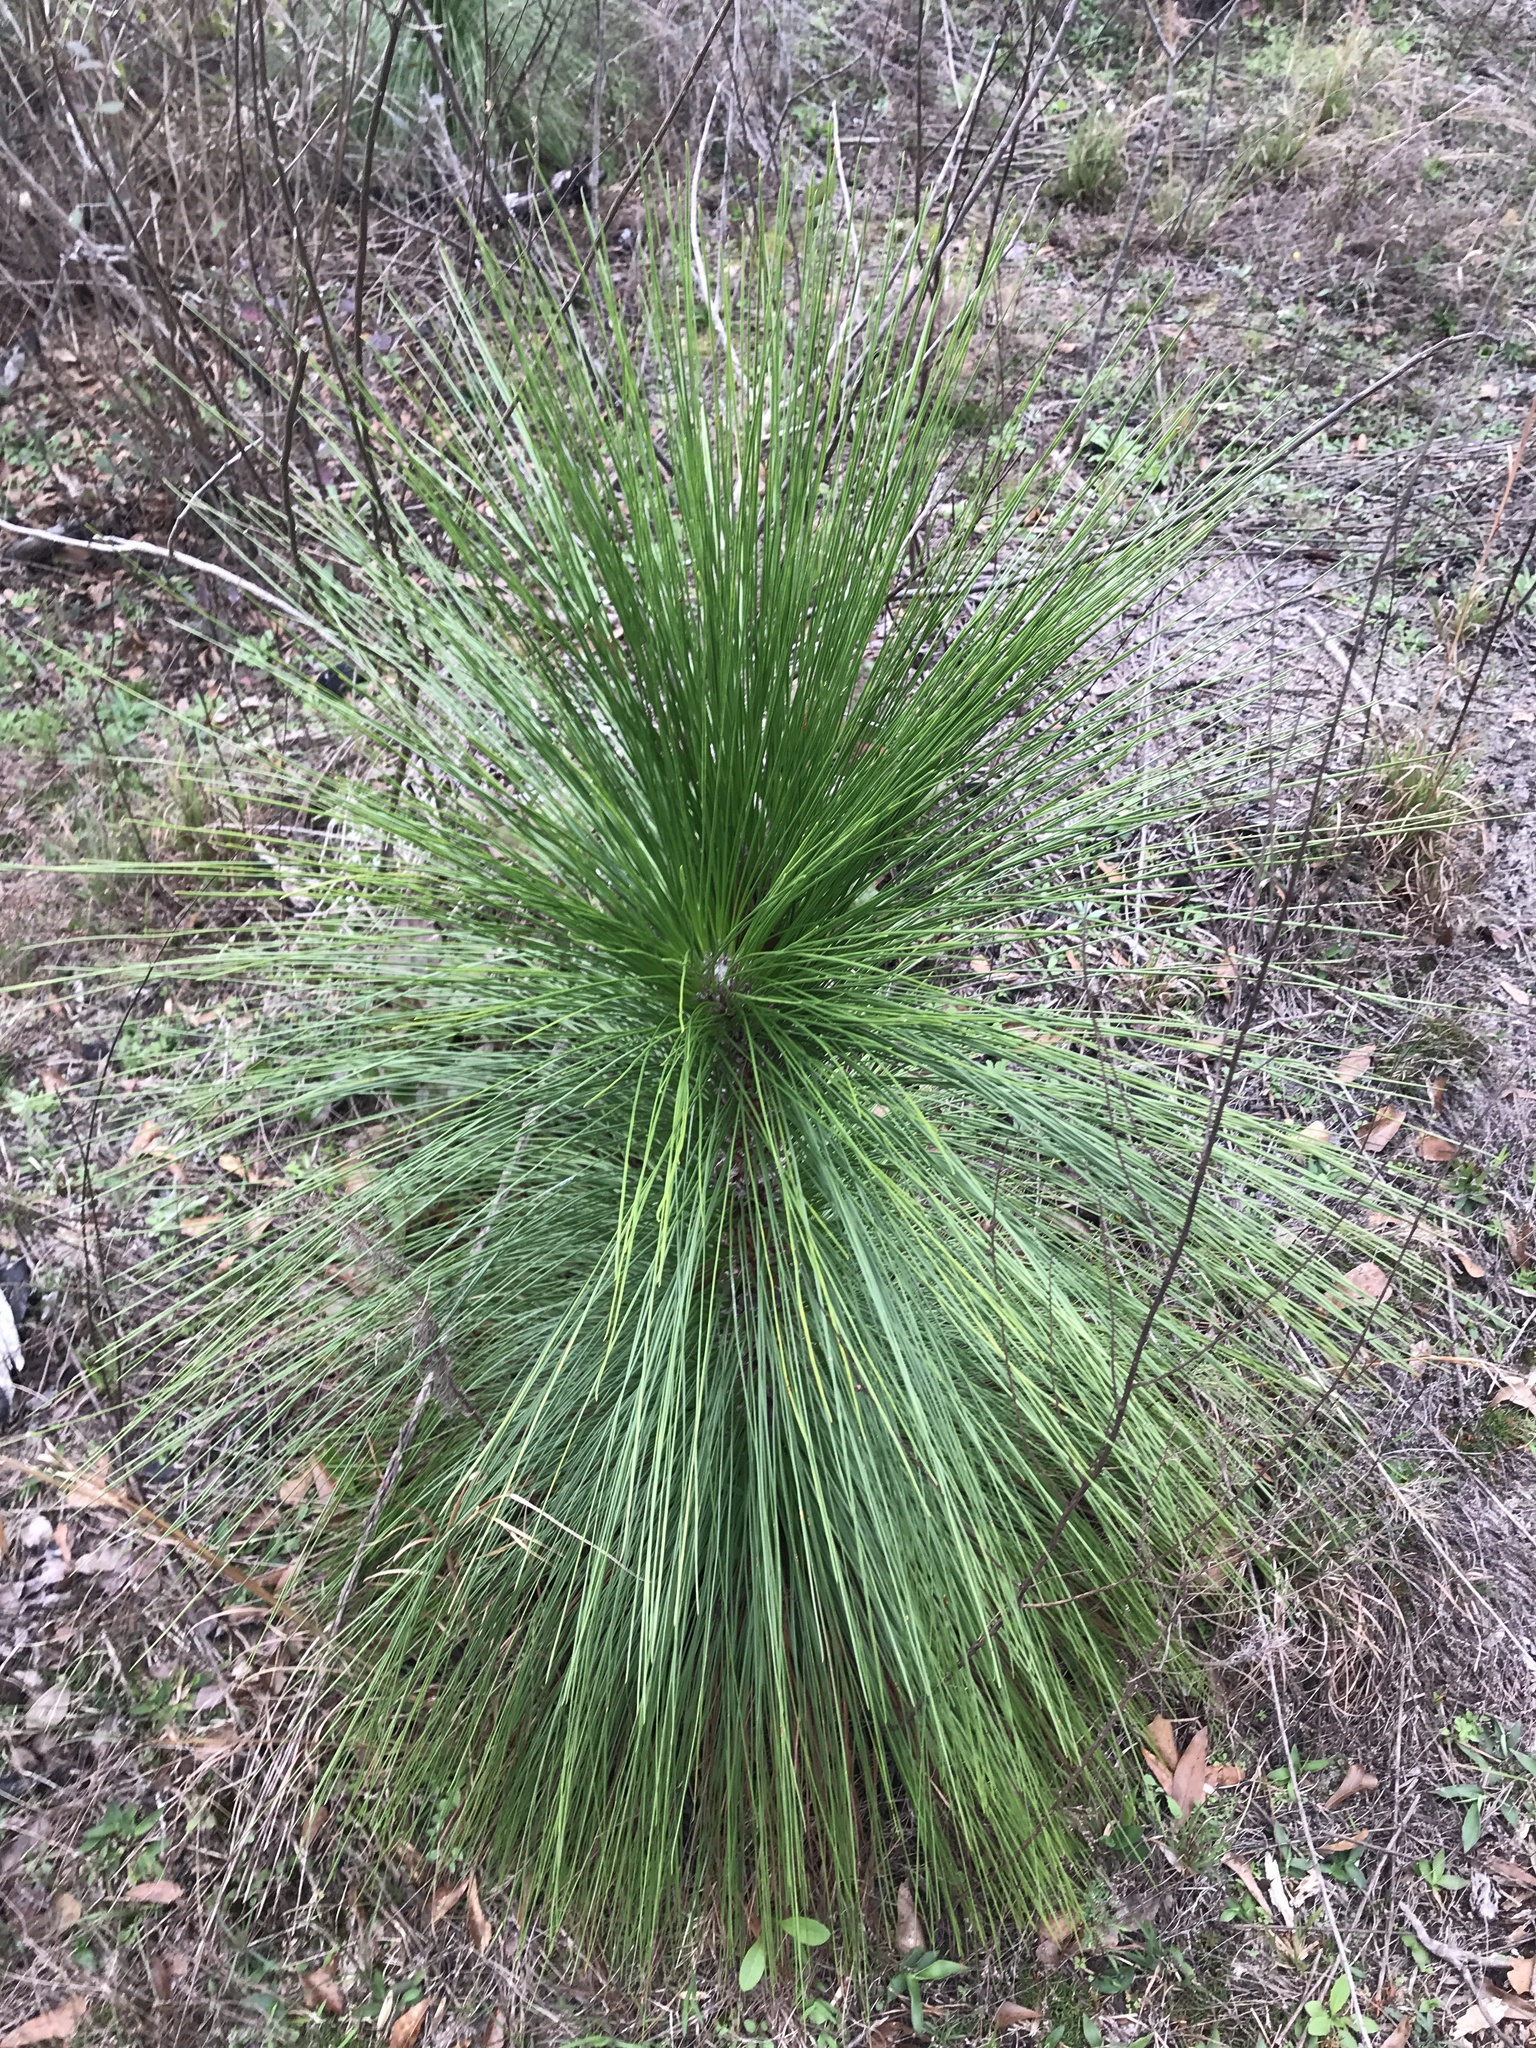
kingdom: Plantae
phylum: Tracheophyta
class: Pinopsida
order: Pinales
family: Pinaceae
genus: Pinus
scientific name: Pinus palustris
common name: Longleaf pine
